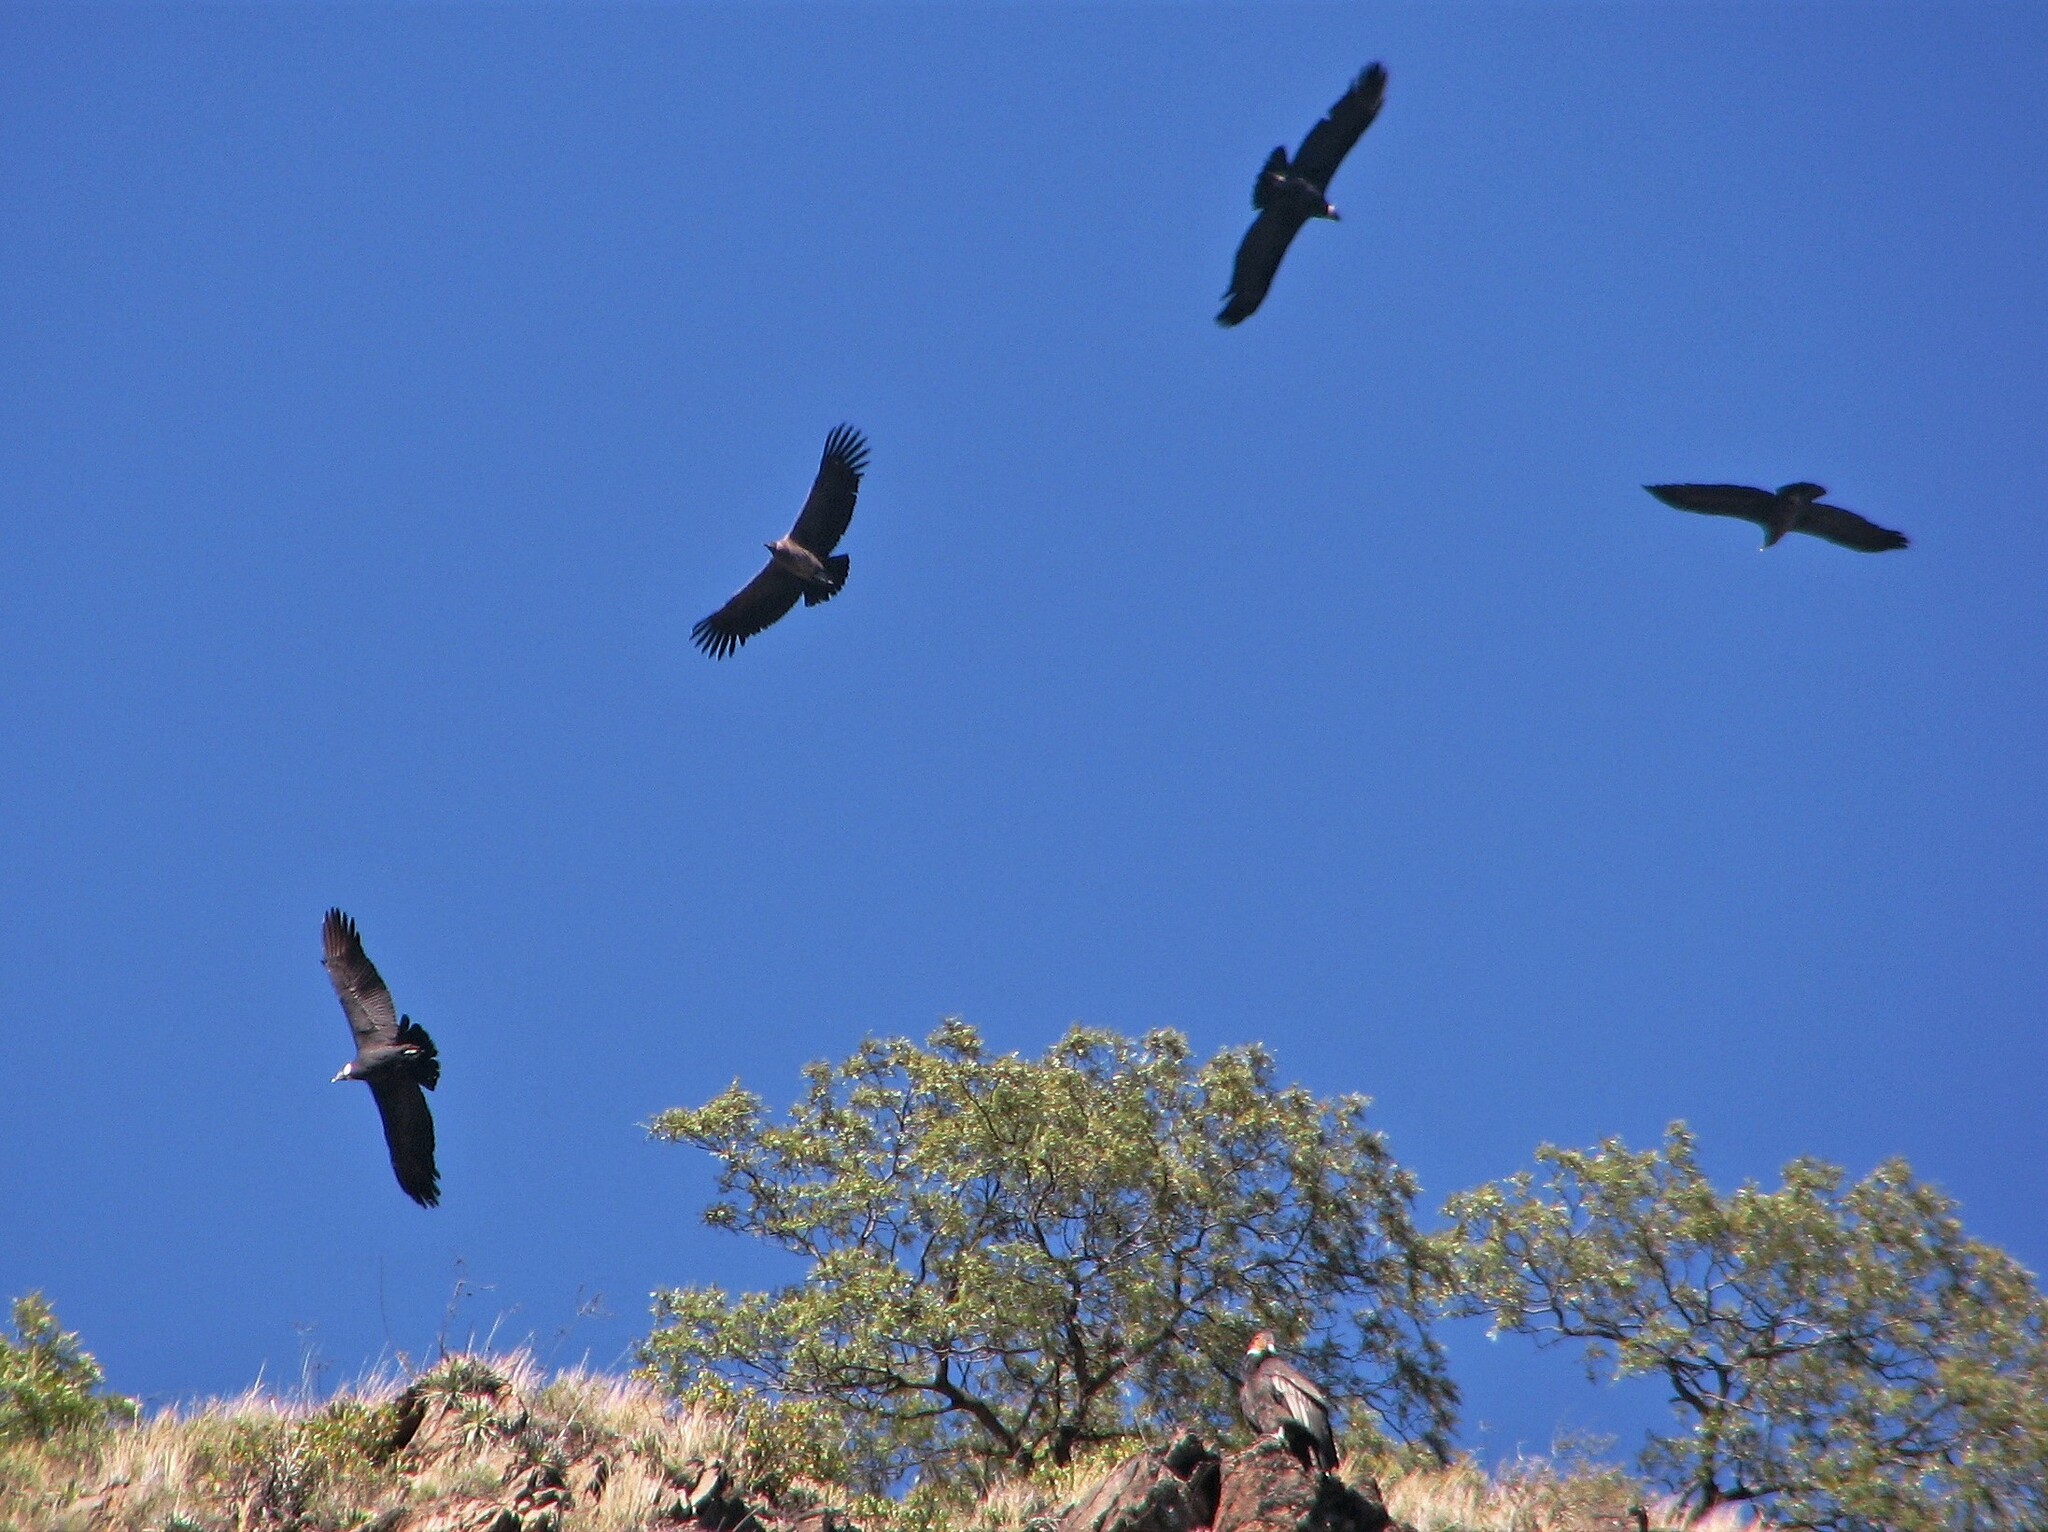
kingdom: Animalia
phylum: Chordata
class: Aves
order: Accipitriformes
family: Cathartidae
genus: Vultur
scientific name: Vultur gryphus
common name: Andean condor
